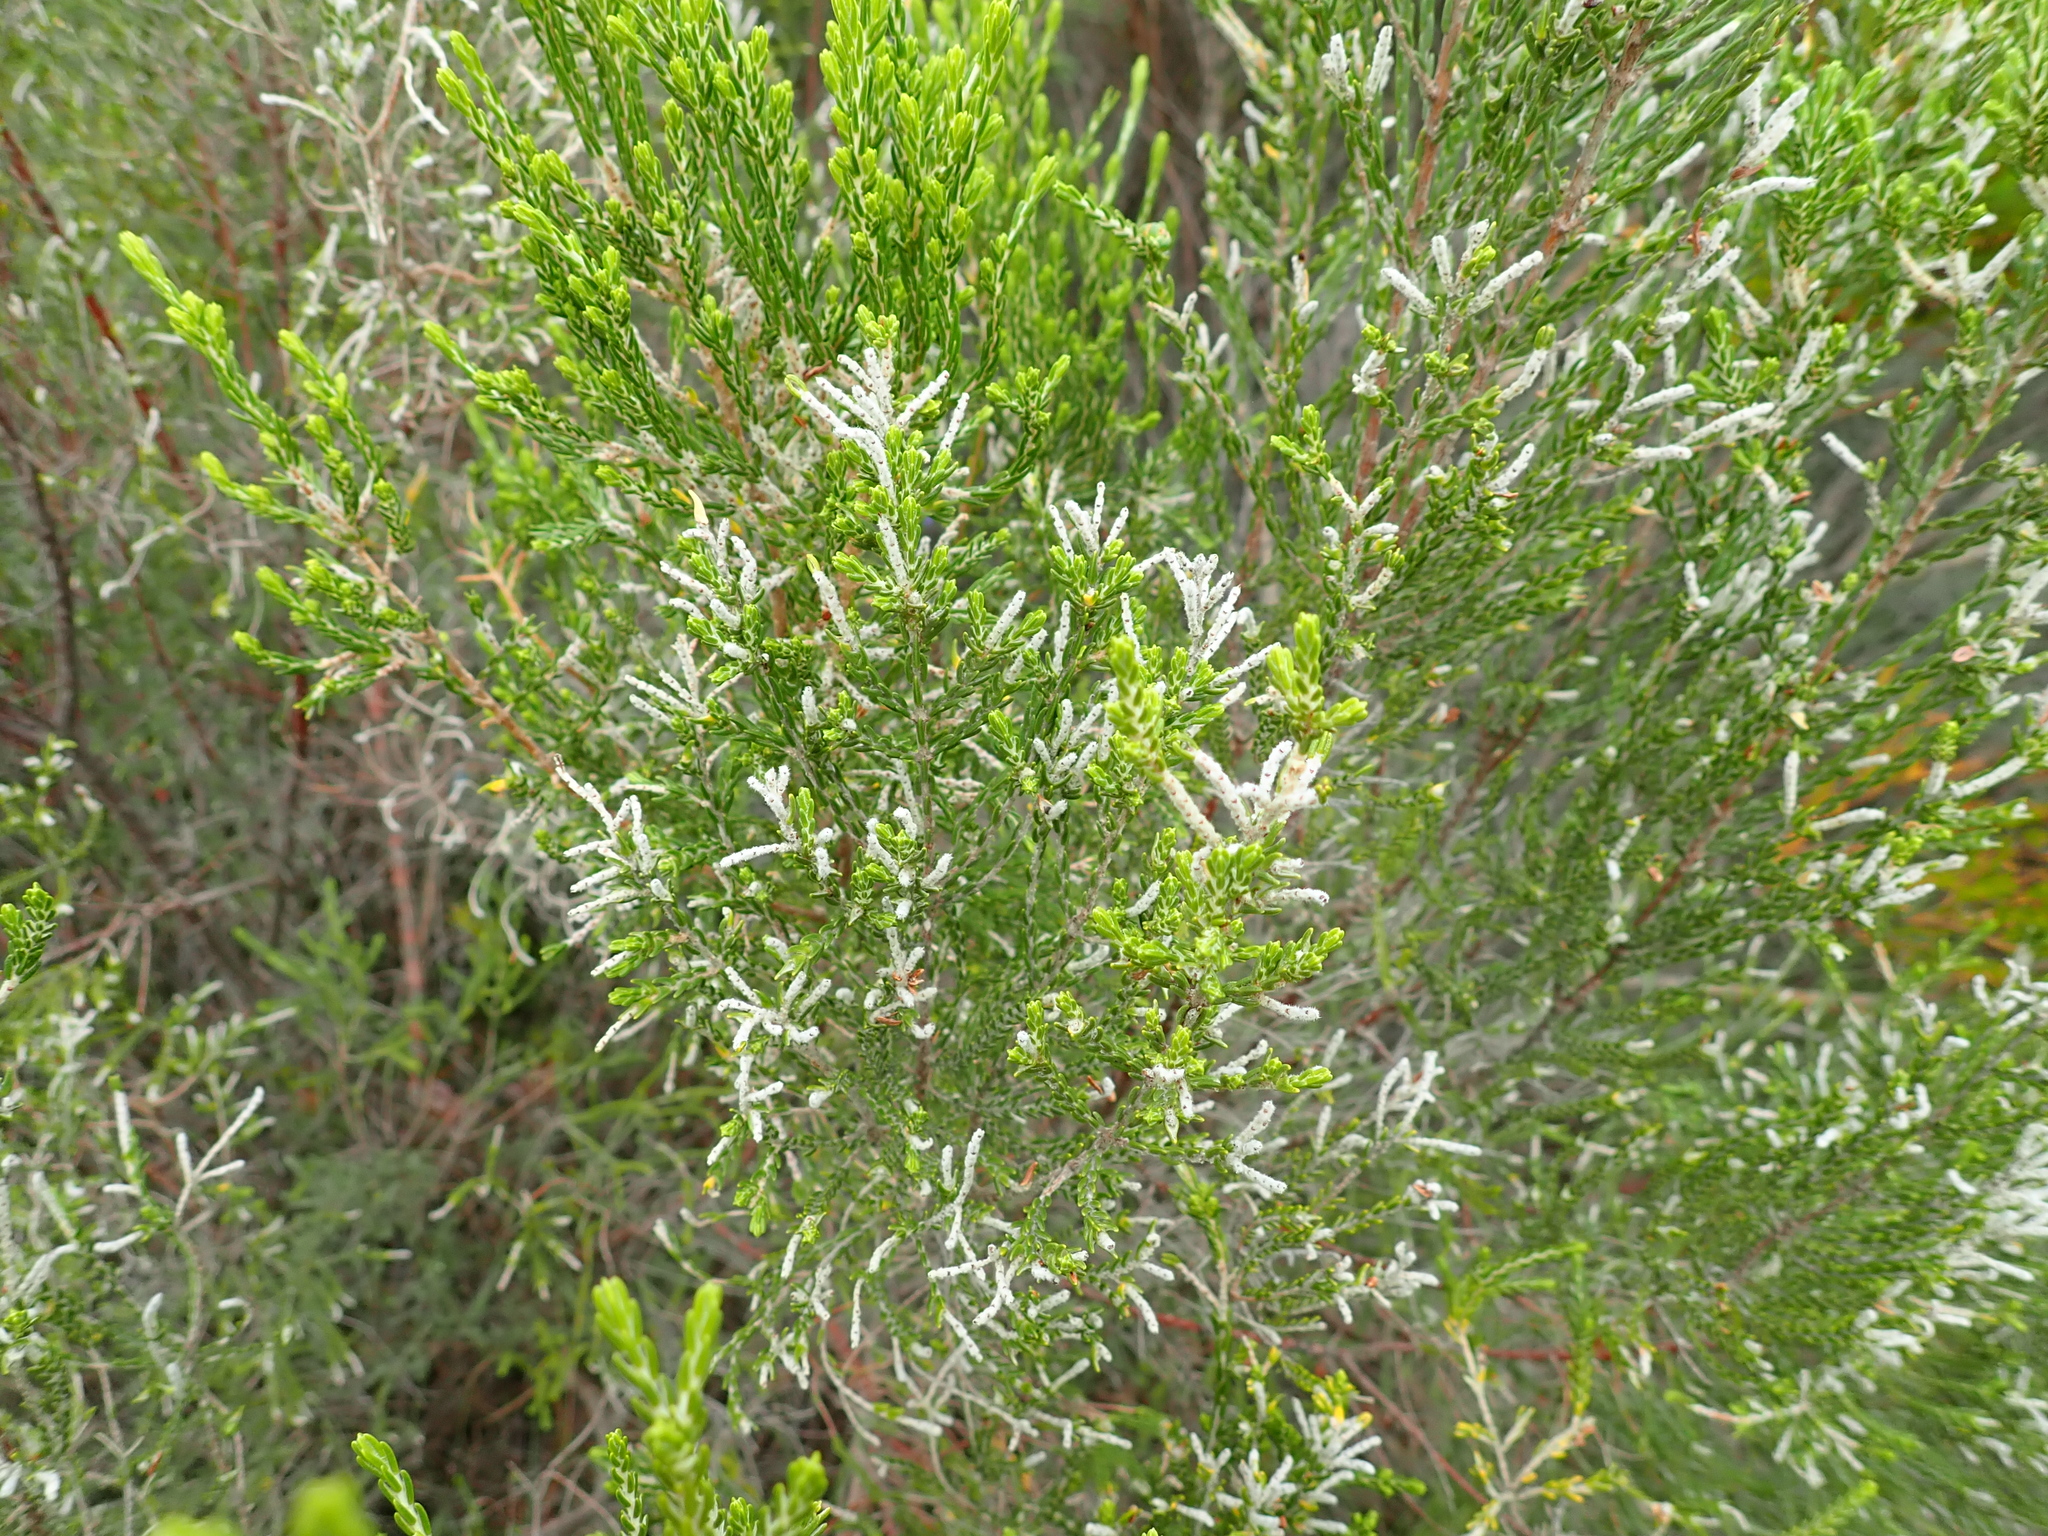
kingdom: Plantae
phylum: Tracheophyta
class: Magnoliopsida
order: Malvales
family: Thymelaeaceae
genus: Passerina
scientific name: Passerina corymbosa
